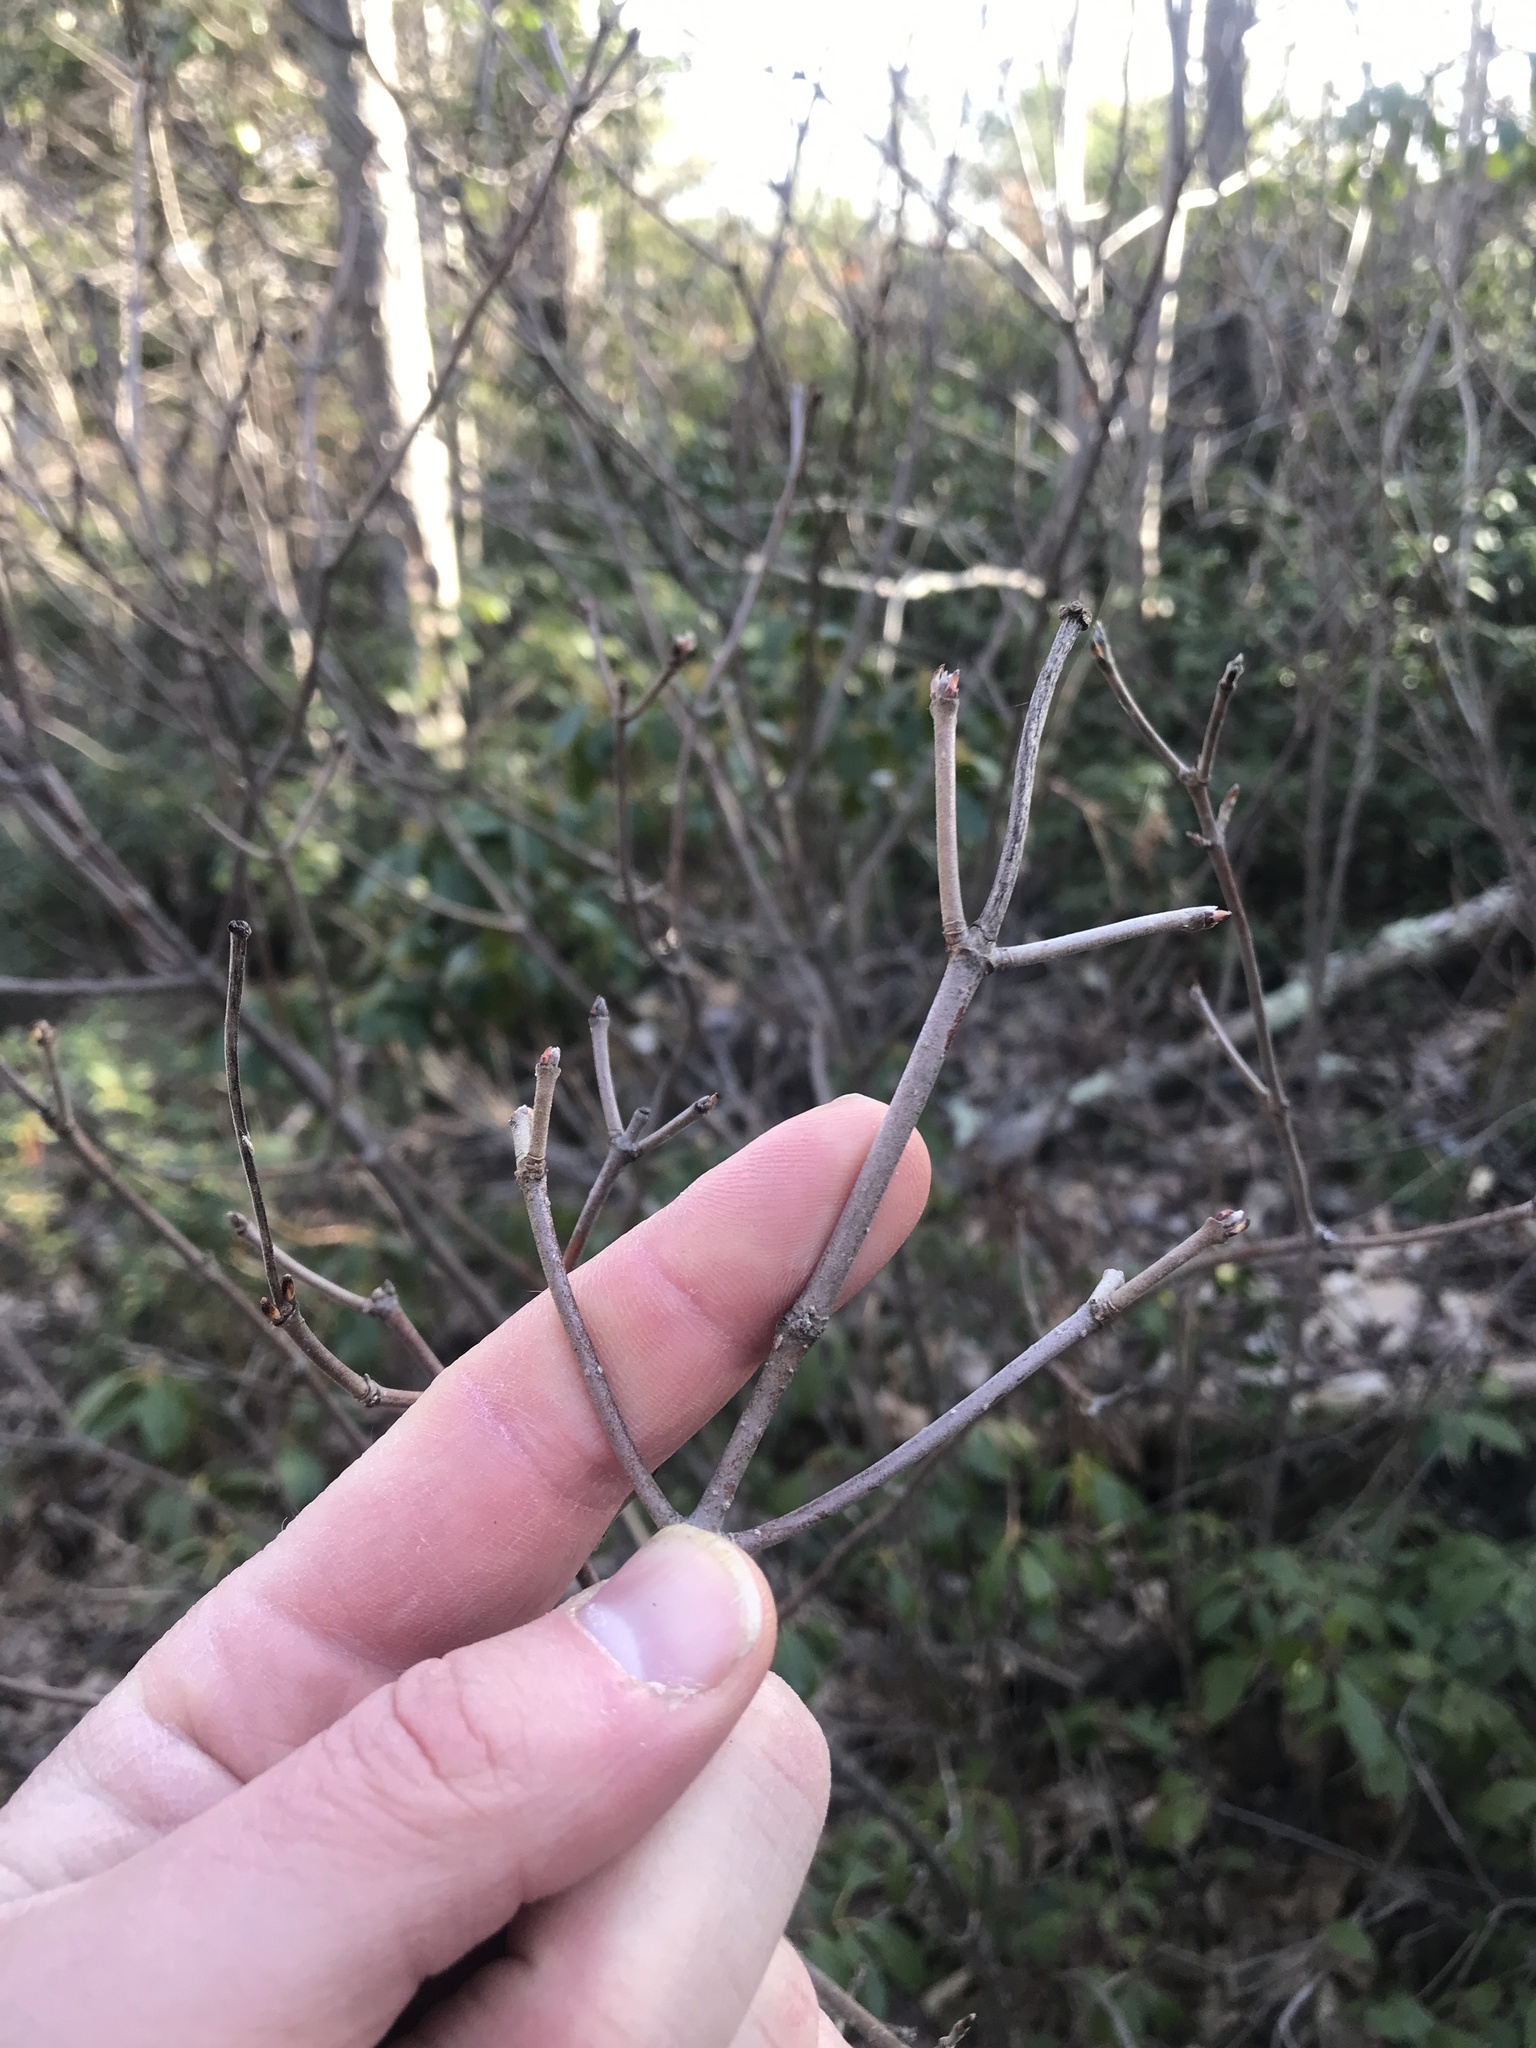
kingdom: Plantae
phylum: Tracheophyta
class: Magnoliopsida
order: Dipsacales
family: Viburnaceae
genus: Viburnum
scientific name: Viburnum acerifolium
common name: Dockmackie
